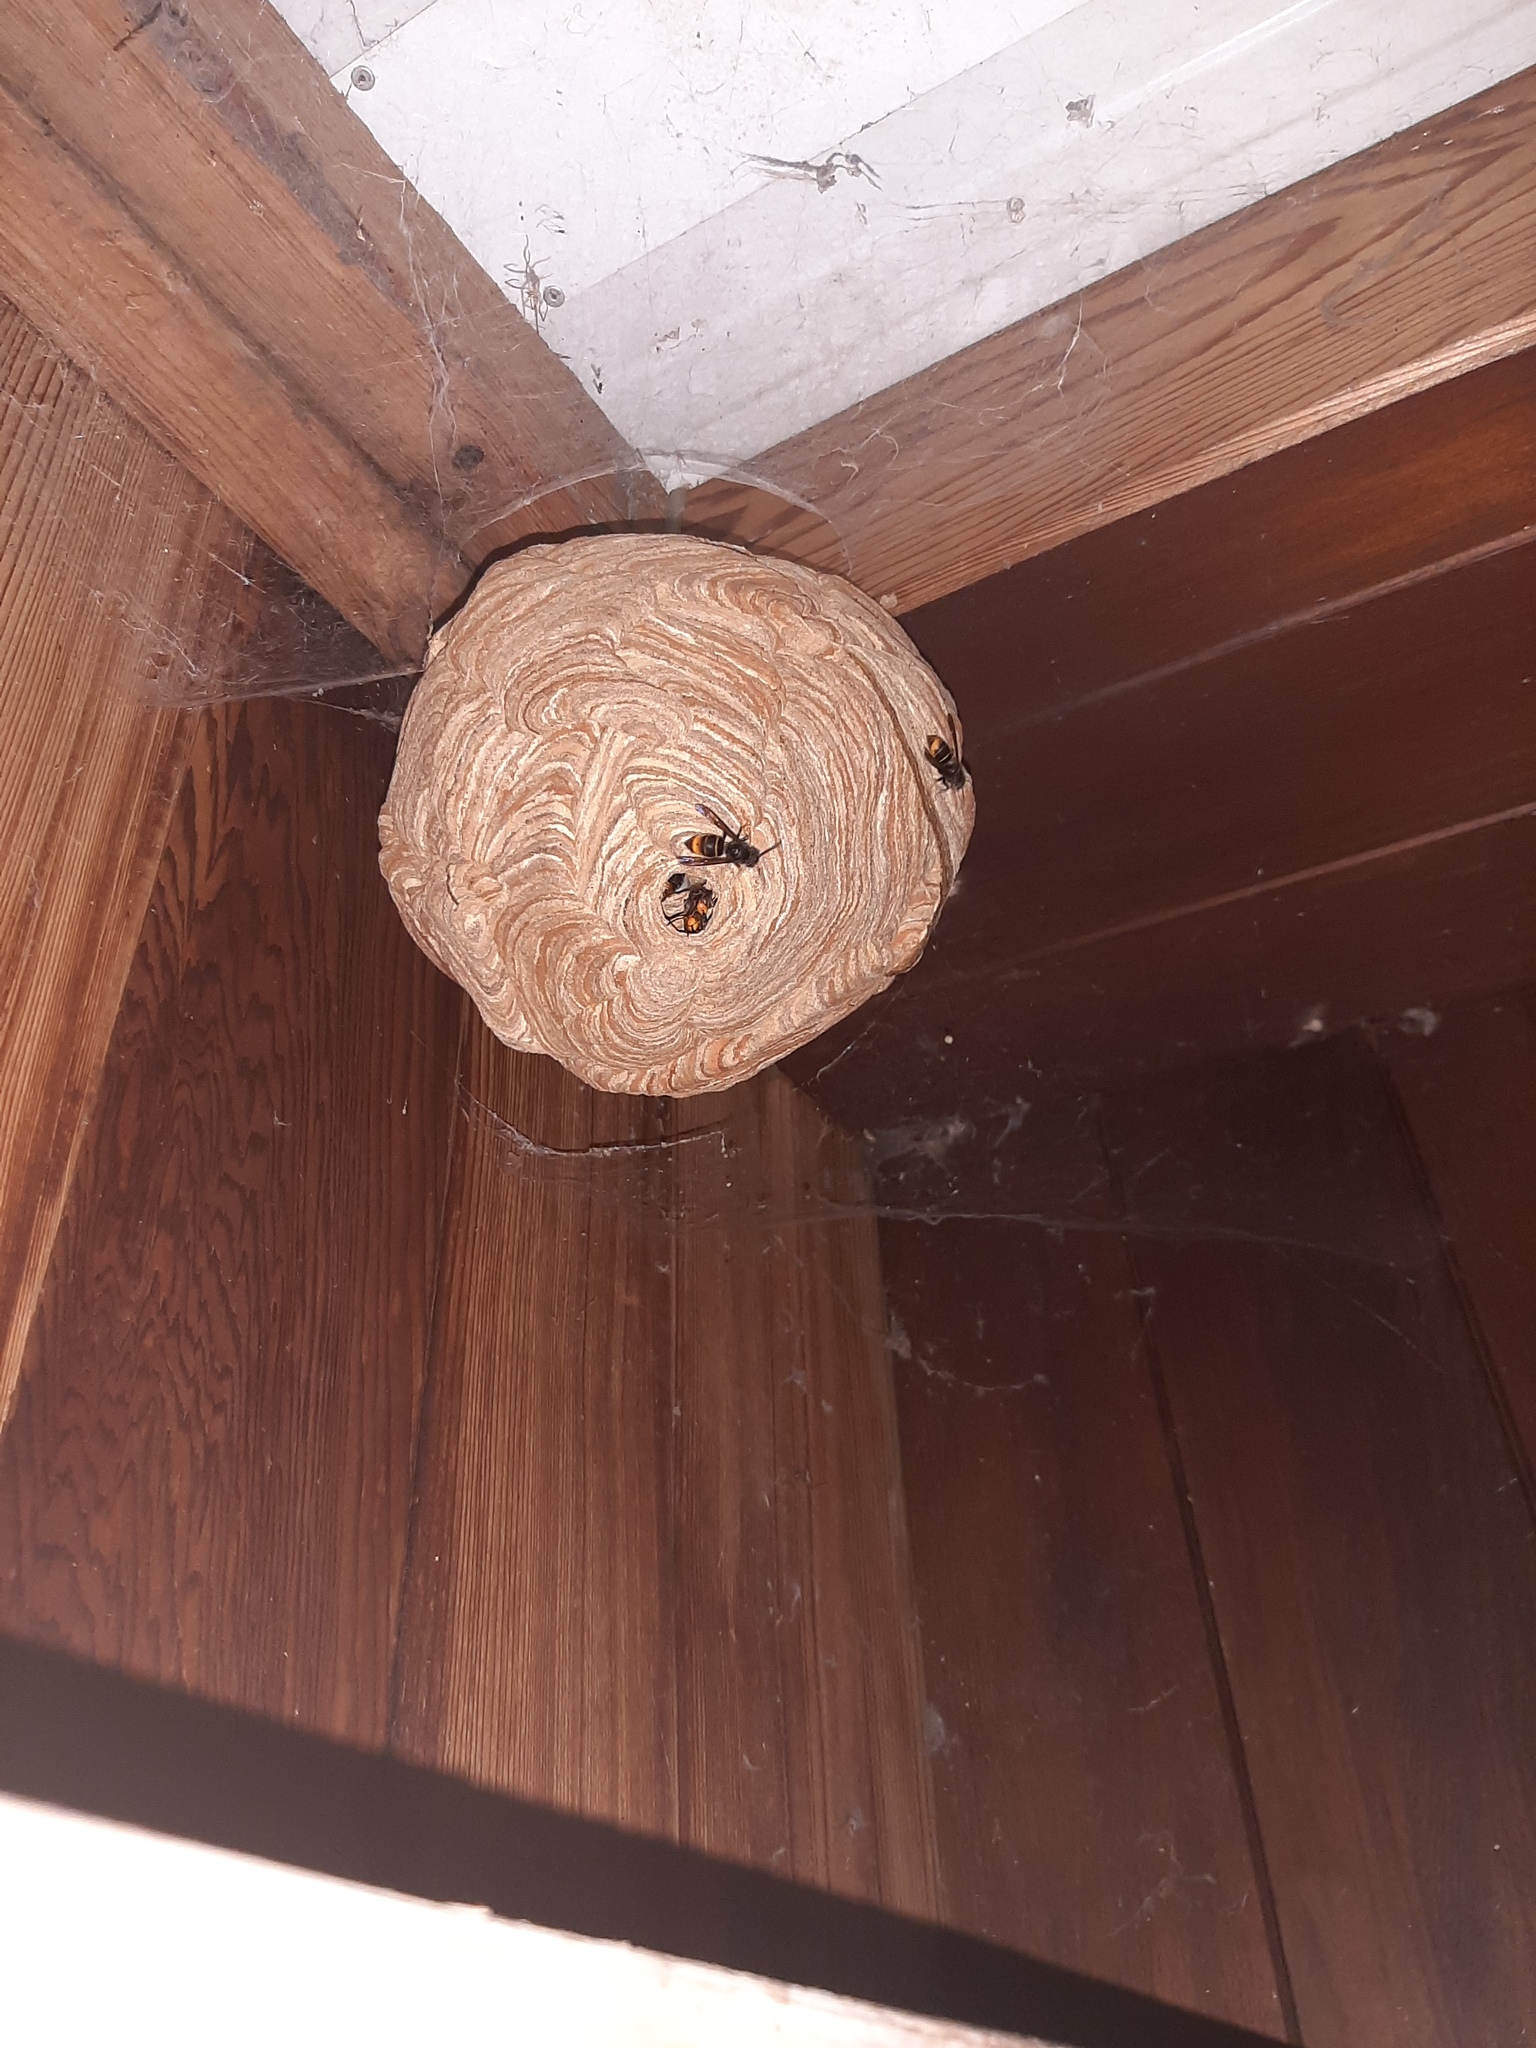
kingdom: Animalia
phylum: Arthropoda
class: Insecta
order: Hymenoptera
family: Vespidae
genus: Vespa
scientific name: Vespa velutina
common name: Asian hornet
